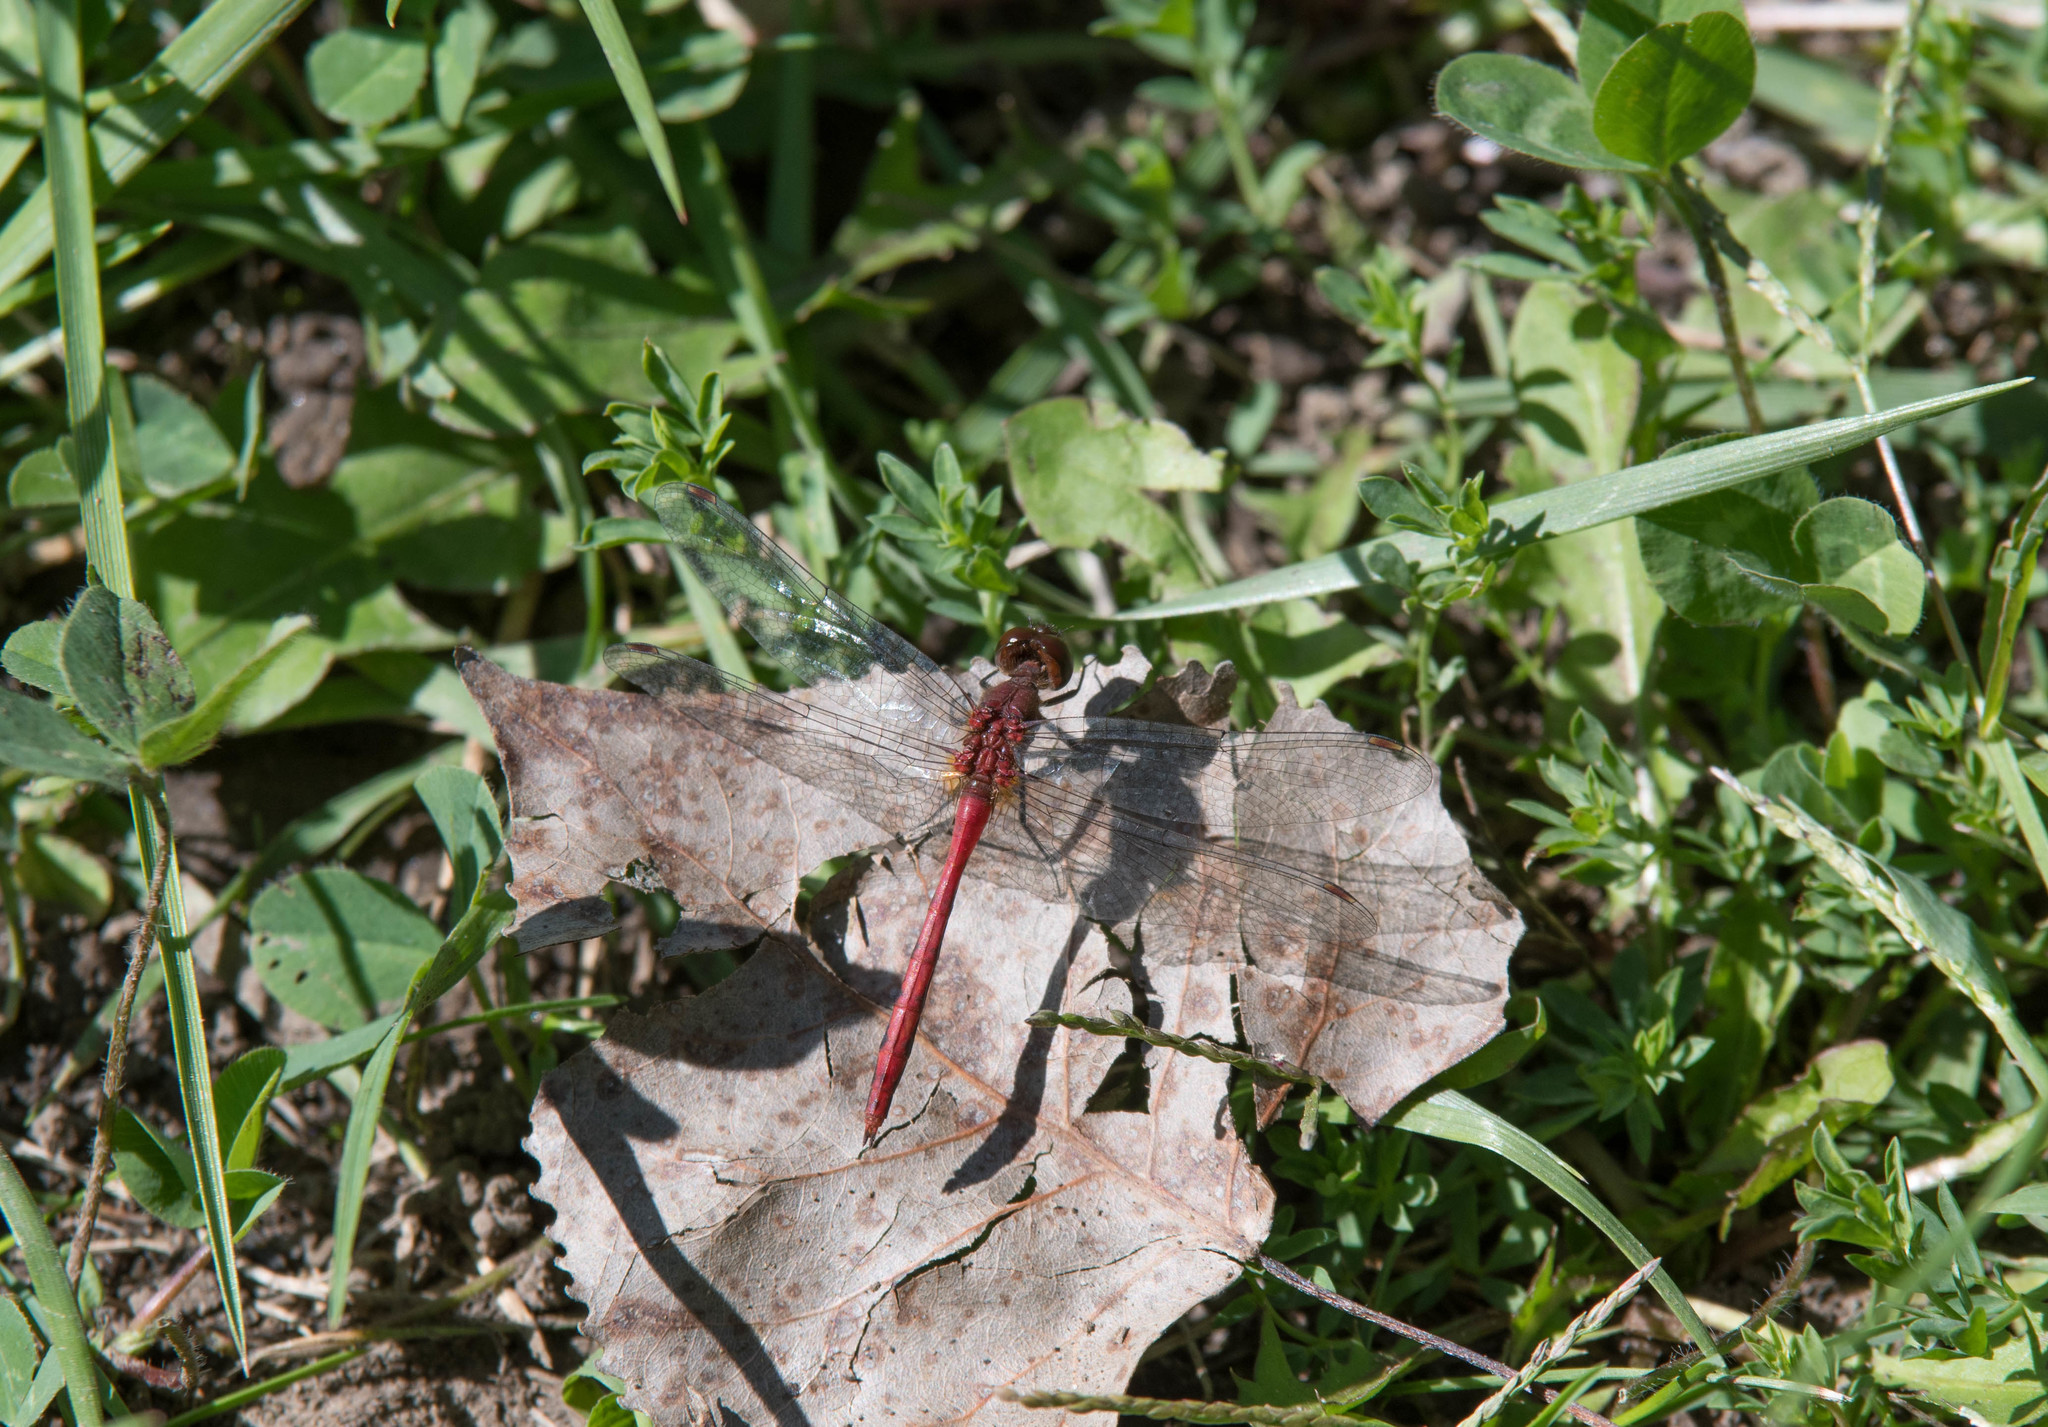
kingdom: Animalia
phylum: Arthropoda
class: Insecta
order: Odonata
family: Libellulidae
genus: Sympetrum
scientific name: Sympetrum
